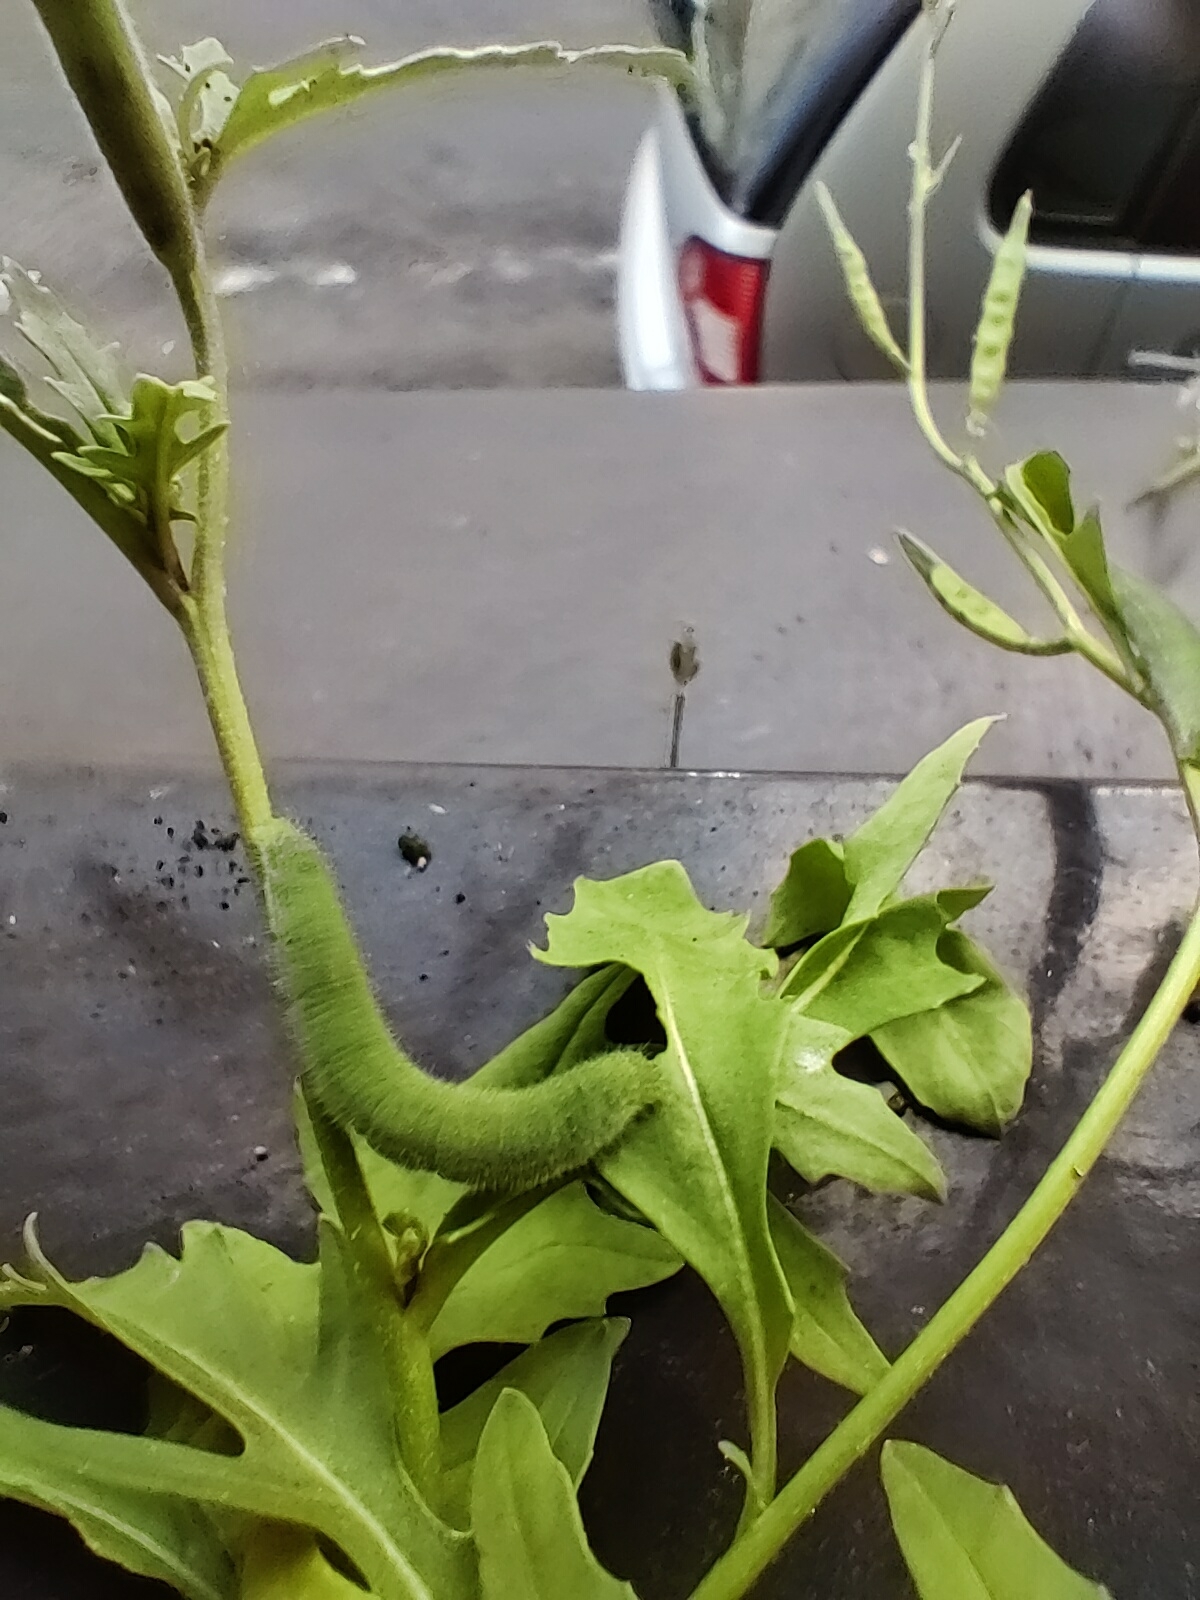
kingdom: Animalia
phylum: Arthropoda
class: Insecta
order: Lepidoptera
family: Pieridae
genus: Pieris
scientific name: Pieris rapae
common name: Small white
